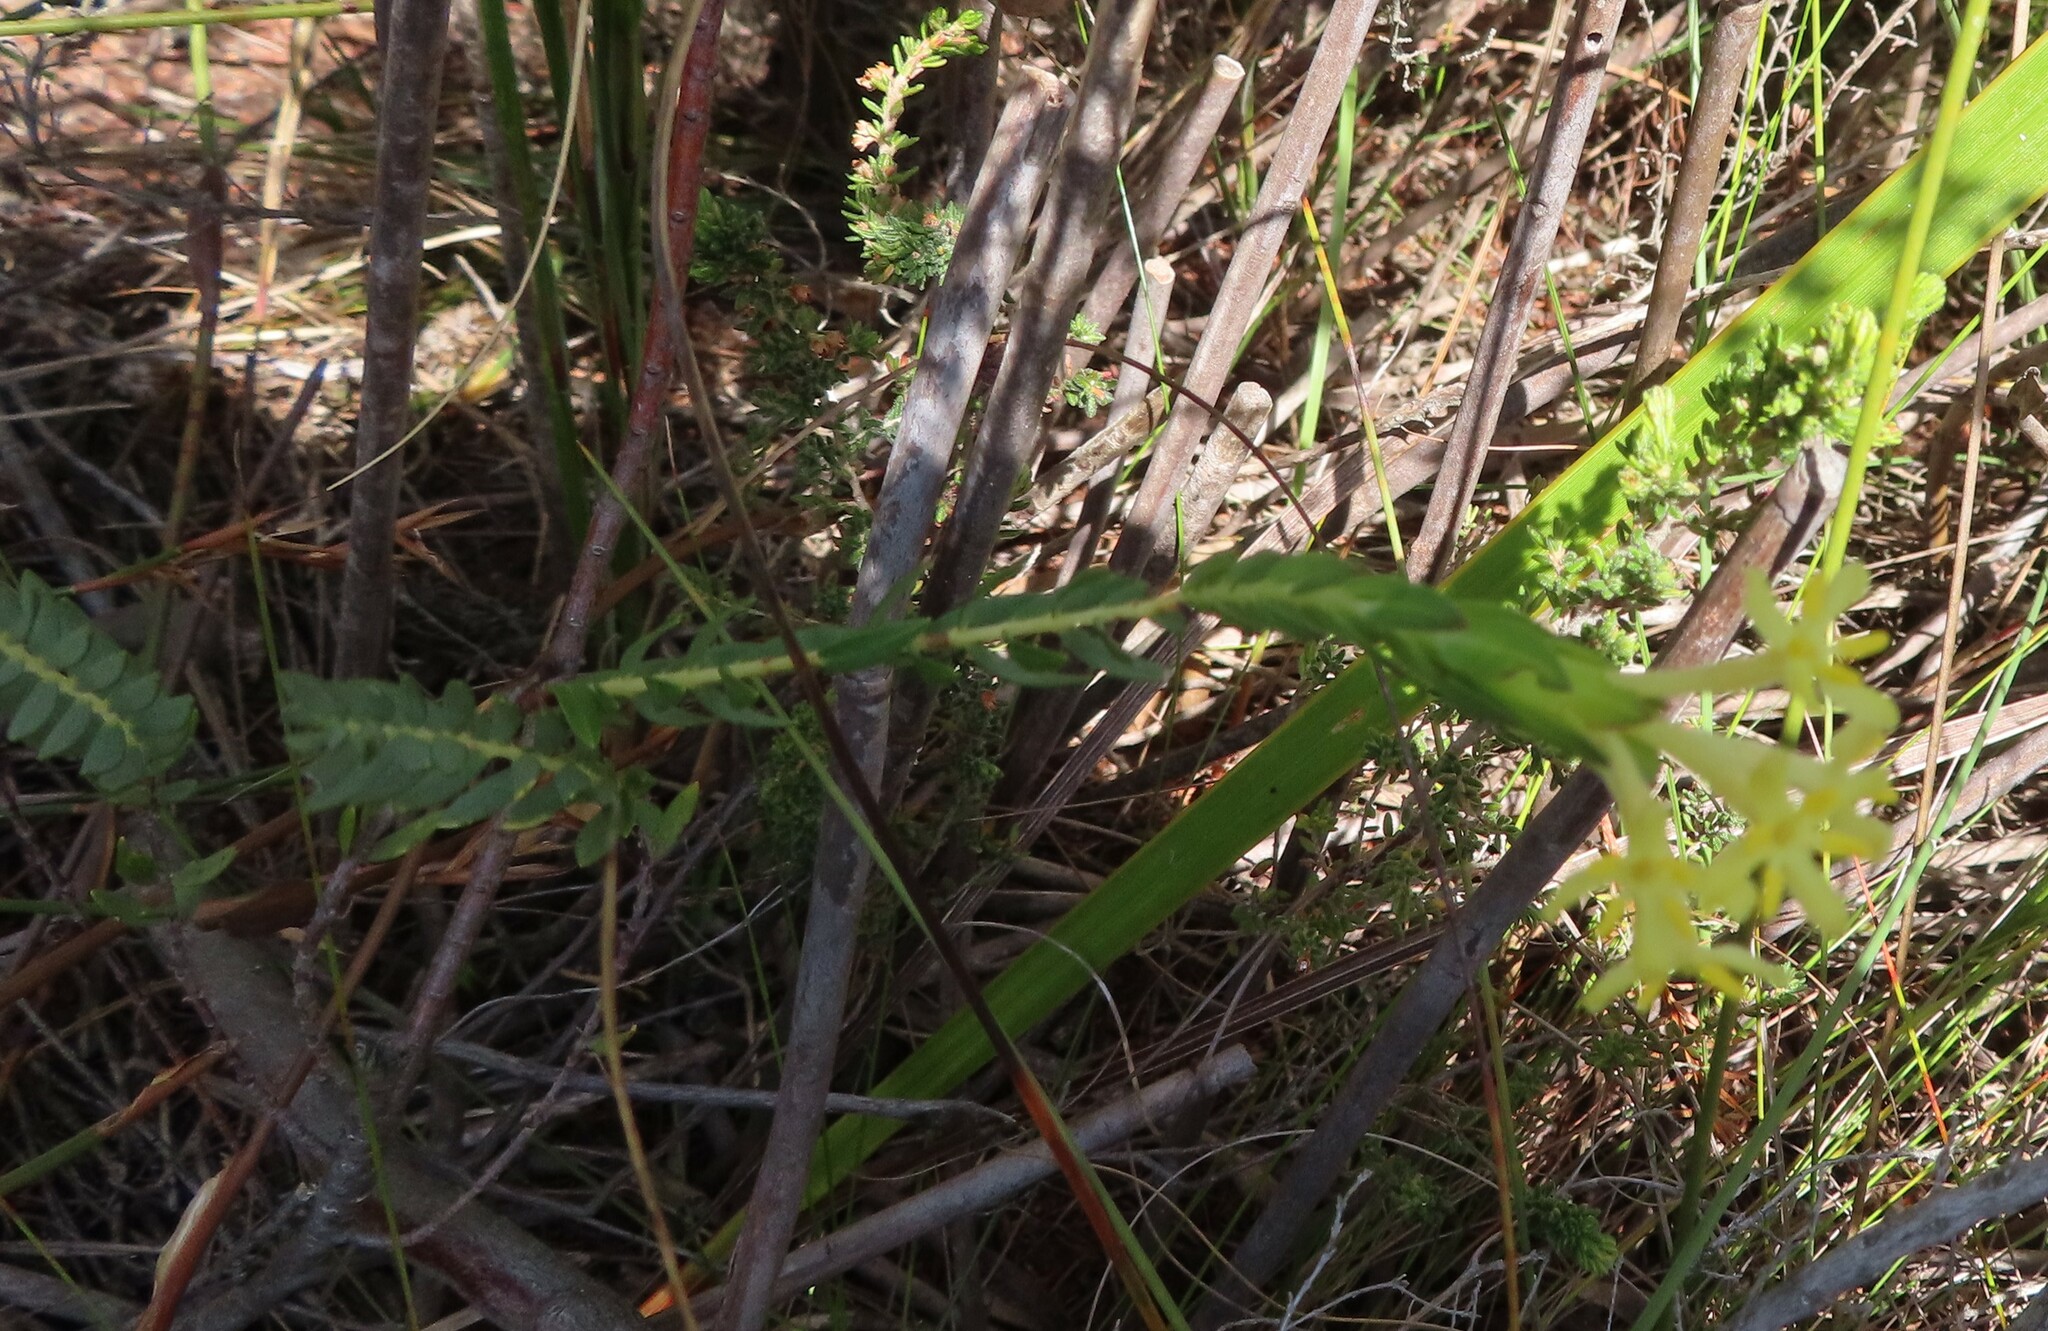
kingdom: Plantae
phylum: Tracheophyta
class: Magnoliopsida
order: Malvales
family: Thymelaeaceae
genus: Gnidia
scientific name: Gnidia oppositifolia
